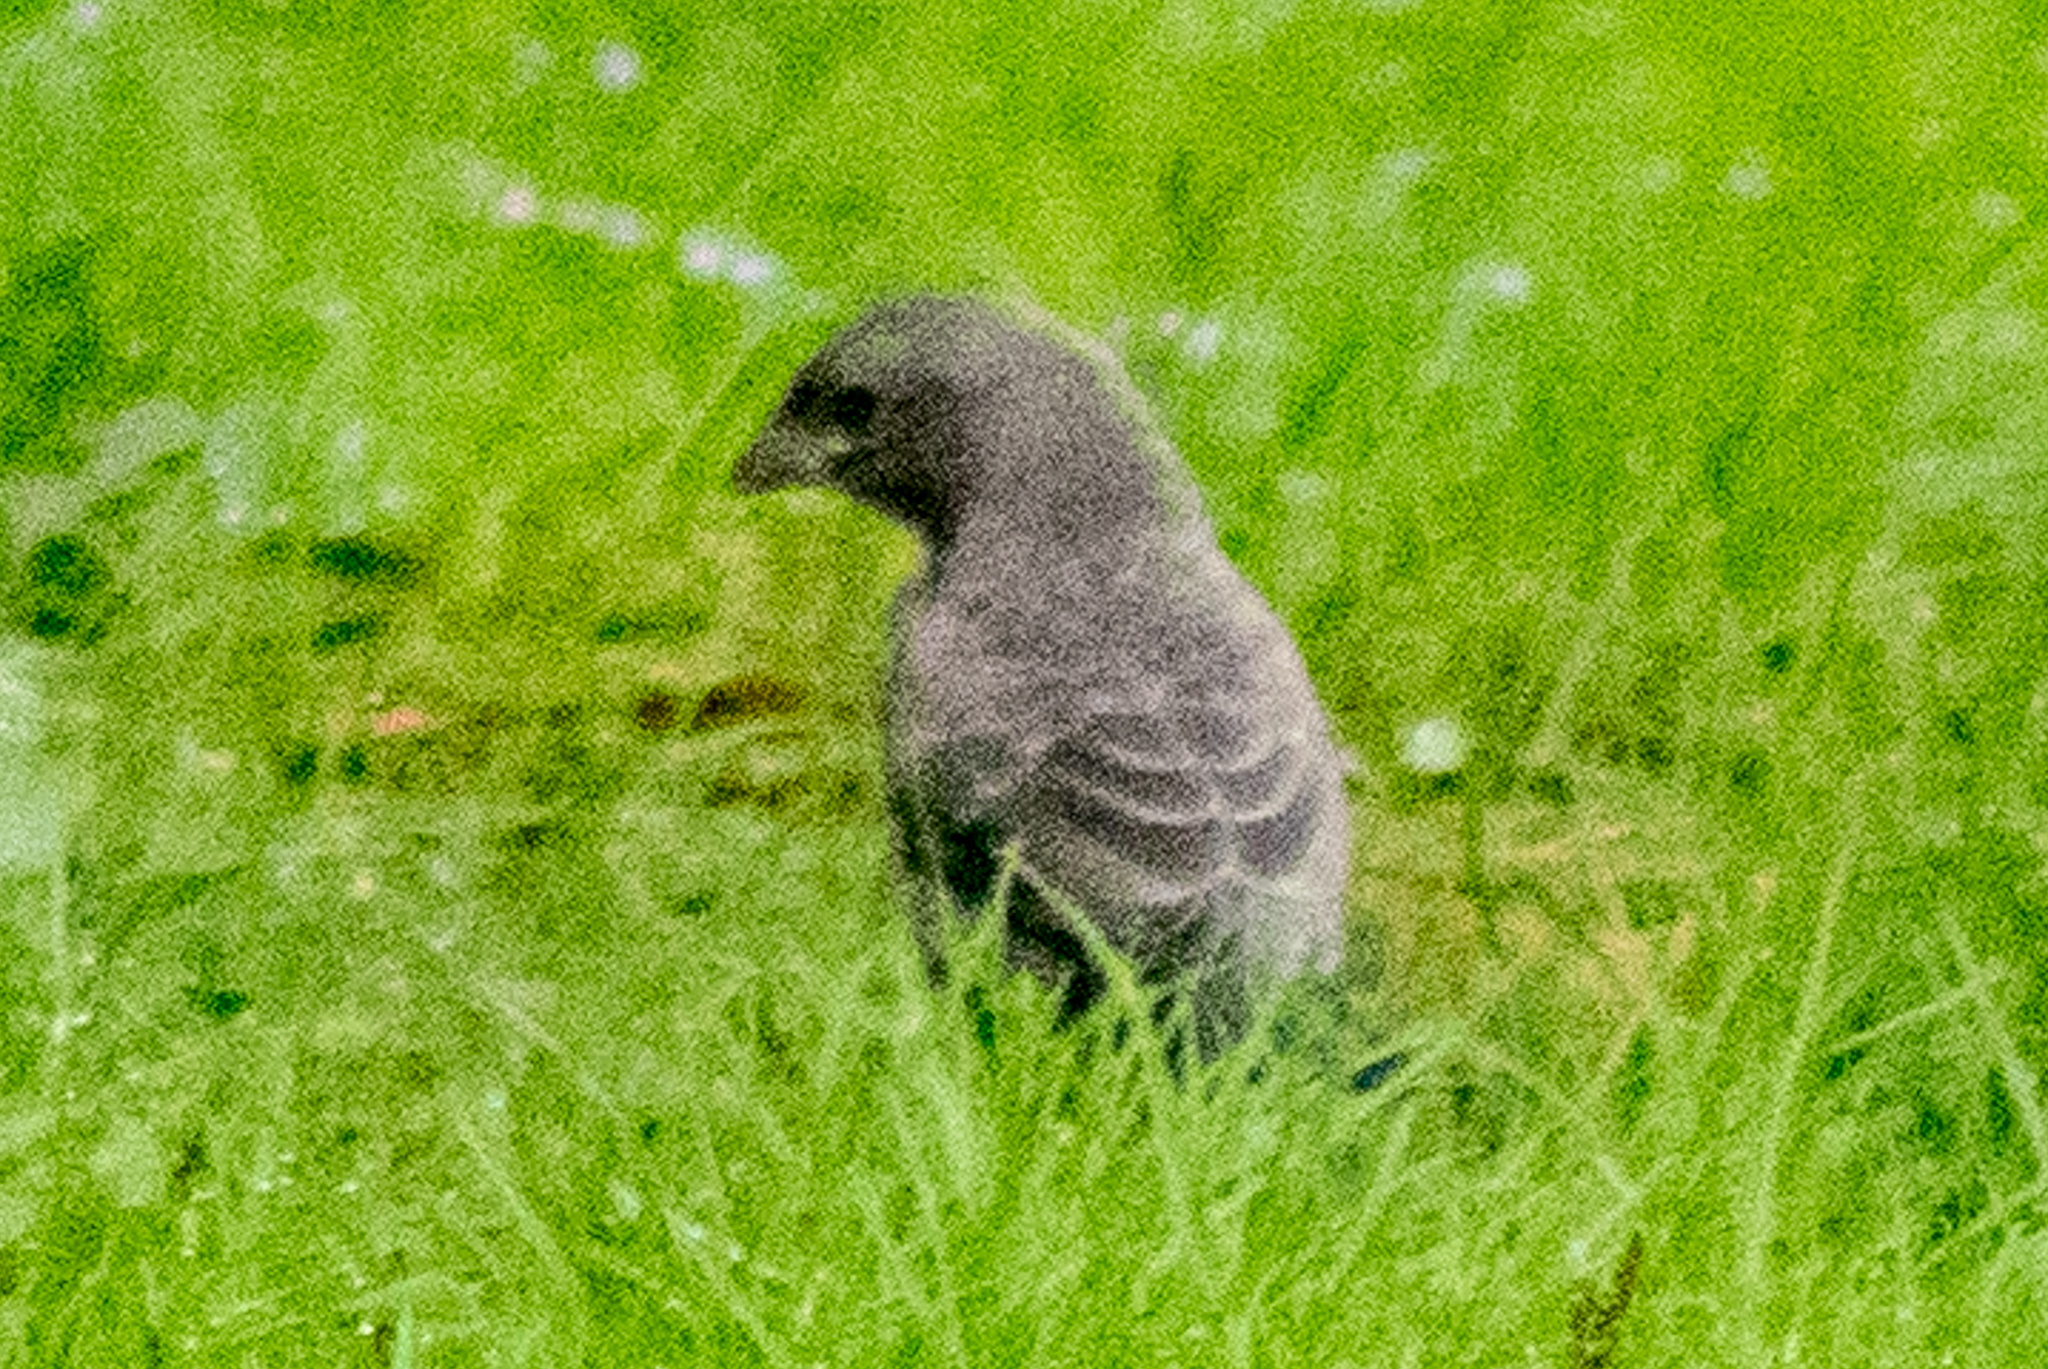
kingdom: Animalia
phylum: Chordata
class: Aves
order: Passeriformes
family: Icteridae
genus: Molothrus
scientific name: Molothrus ater
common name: Brown-headed cowbird
